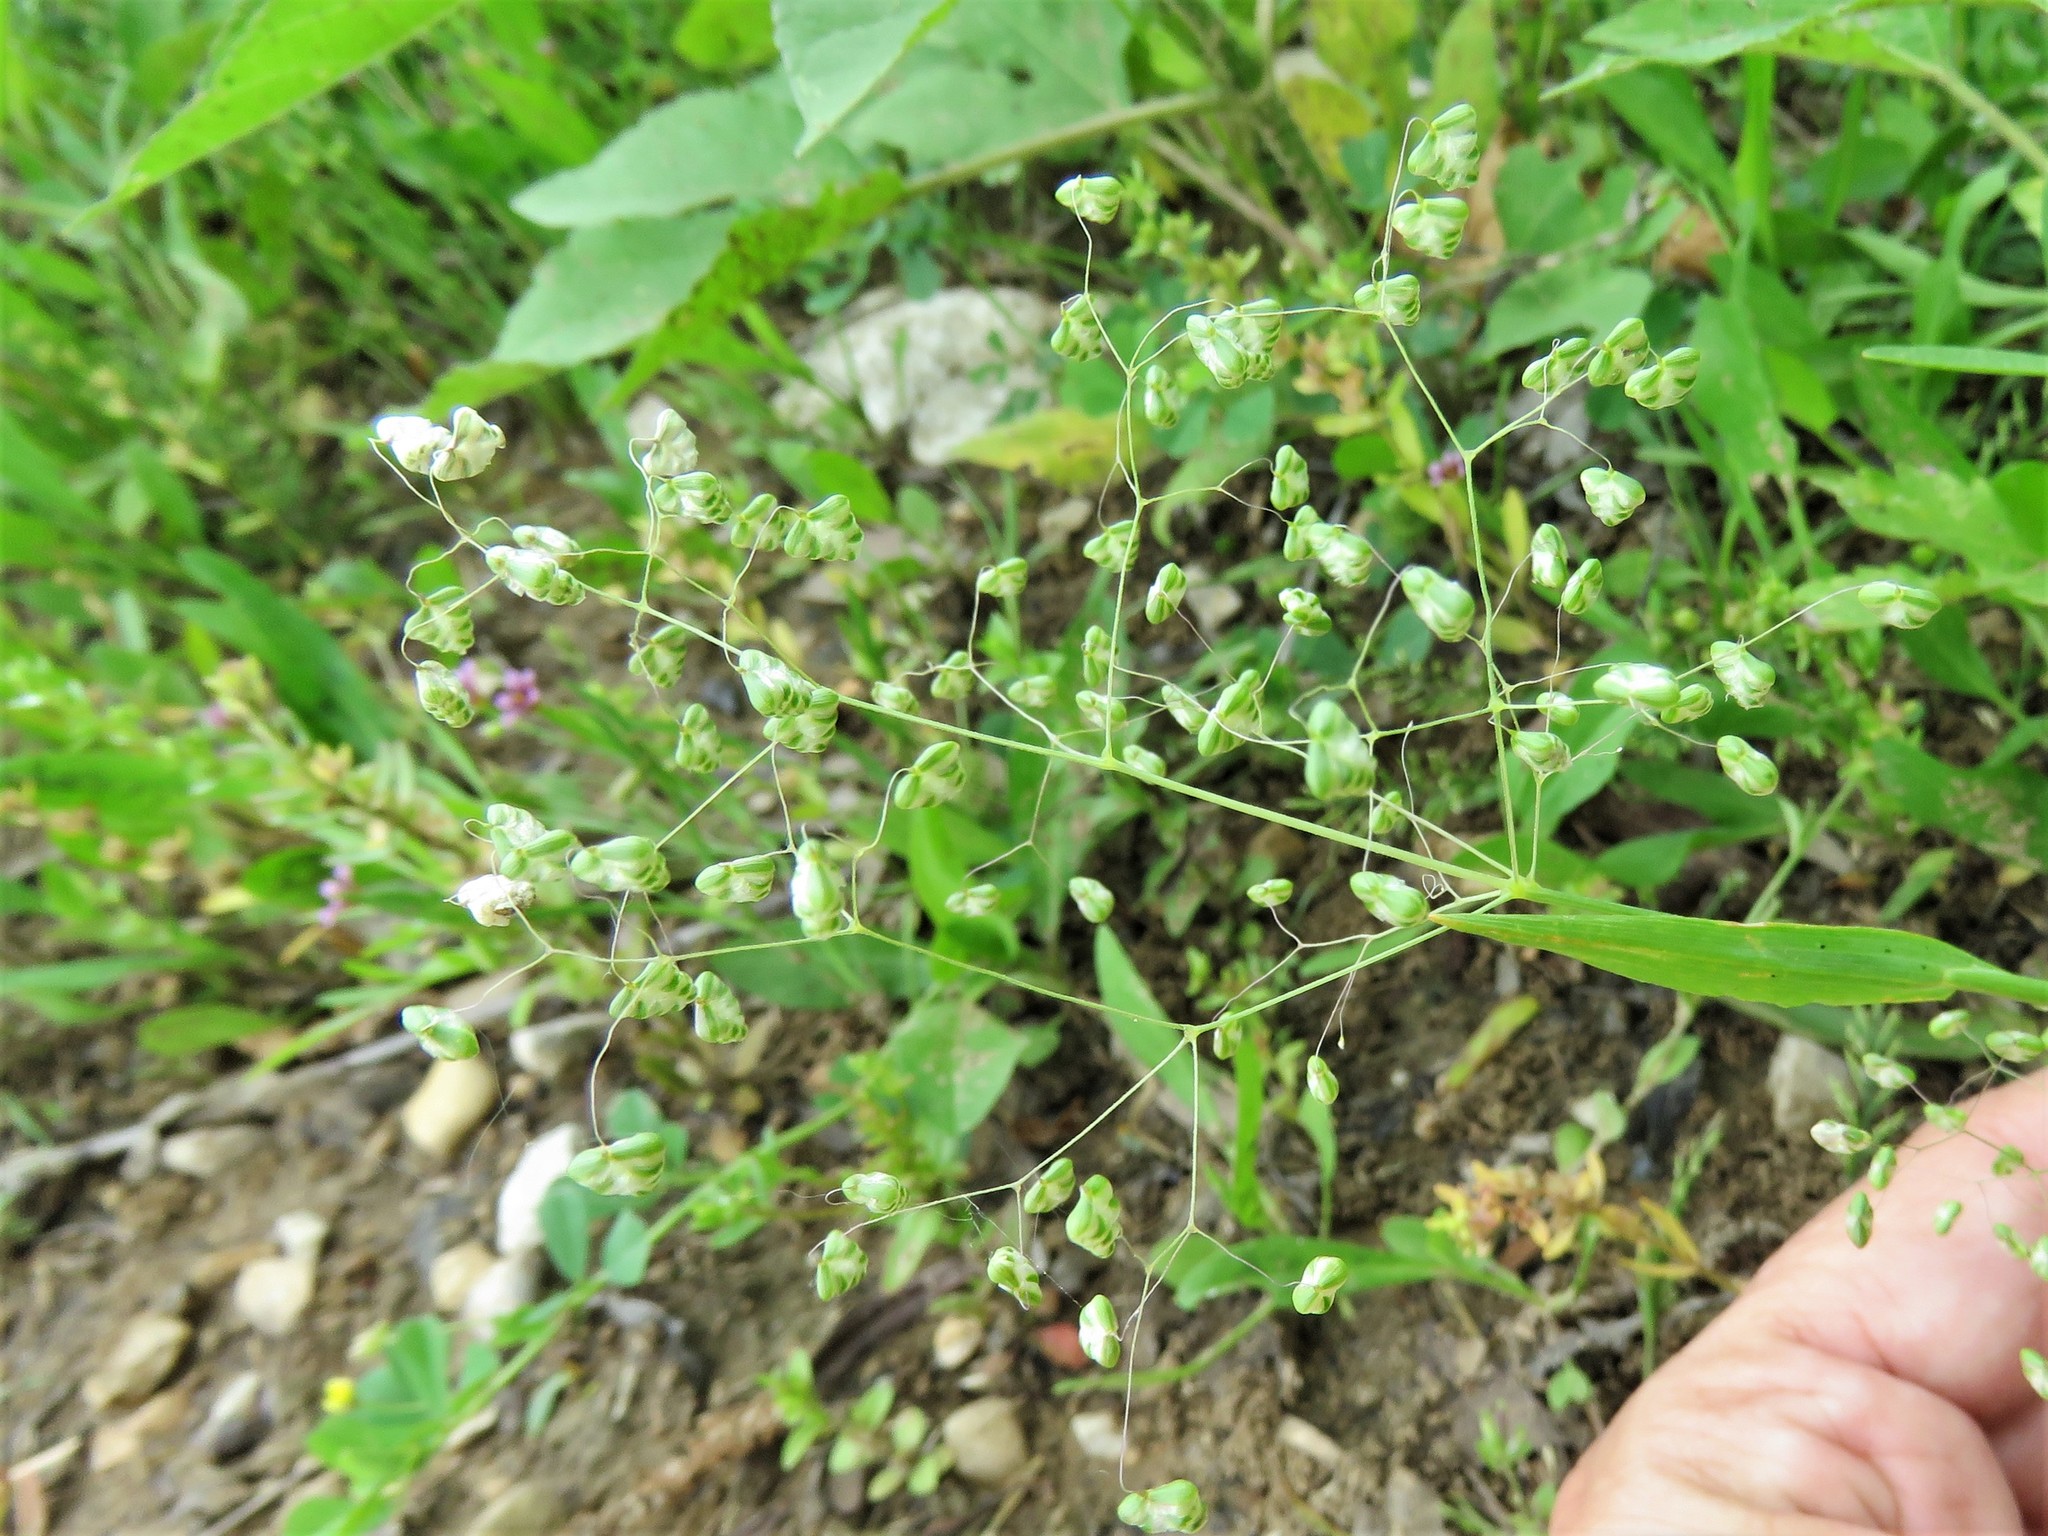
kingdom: Plantae
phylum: Tracheophyta
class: Liliopsida
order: Poales
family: Poaceae
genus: Briza
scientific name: Briza minor
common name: Lesser quaking-grass
